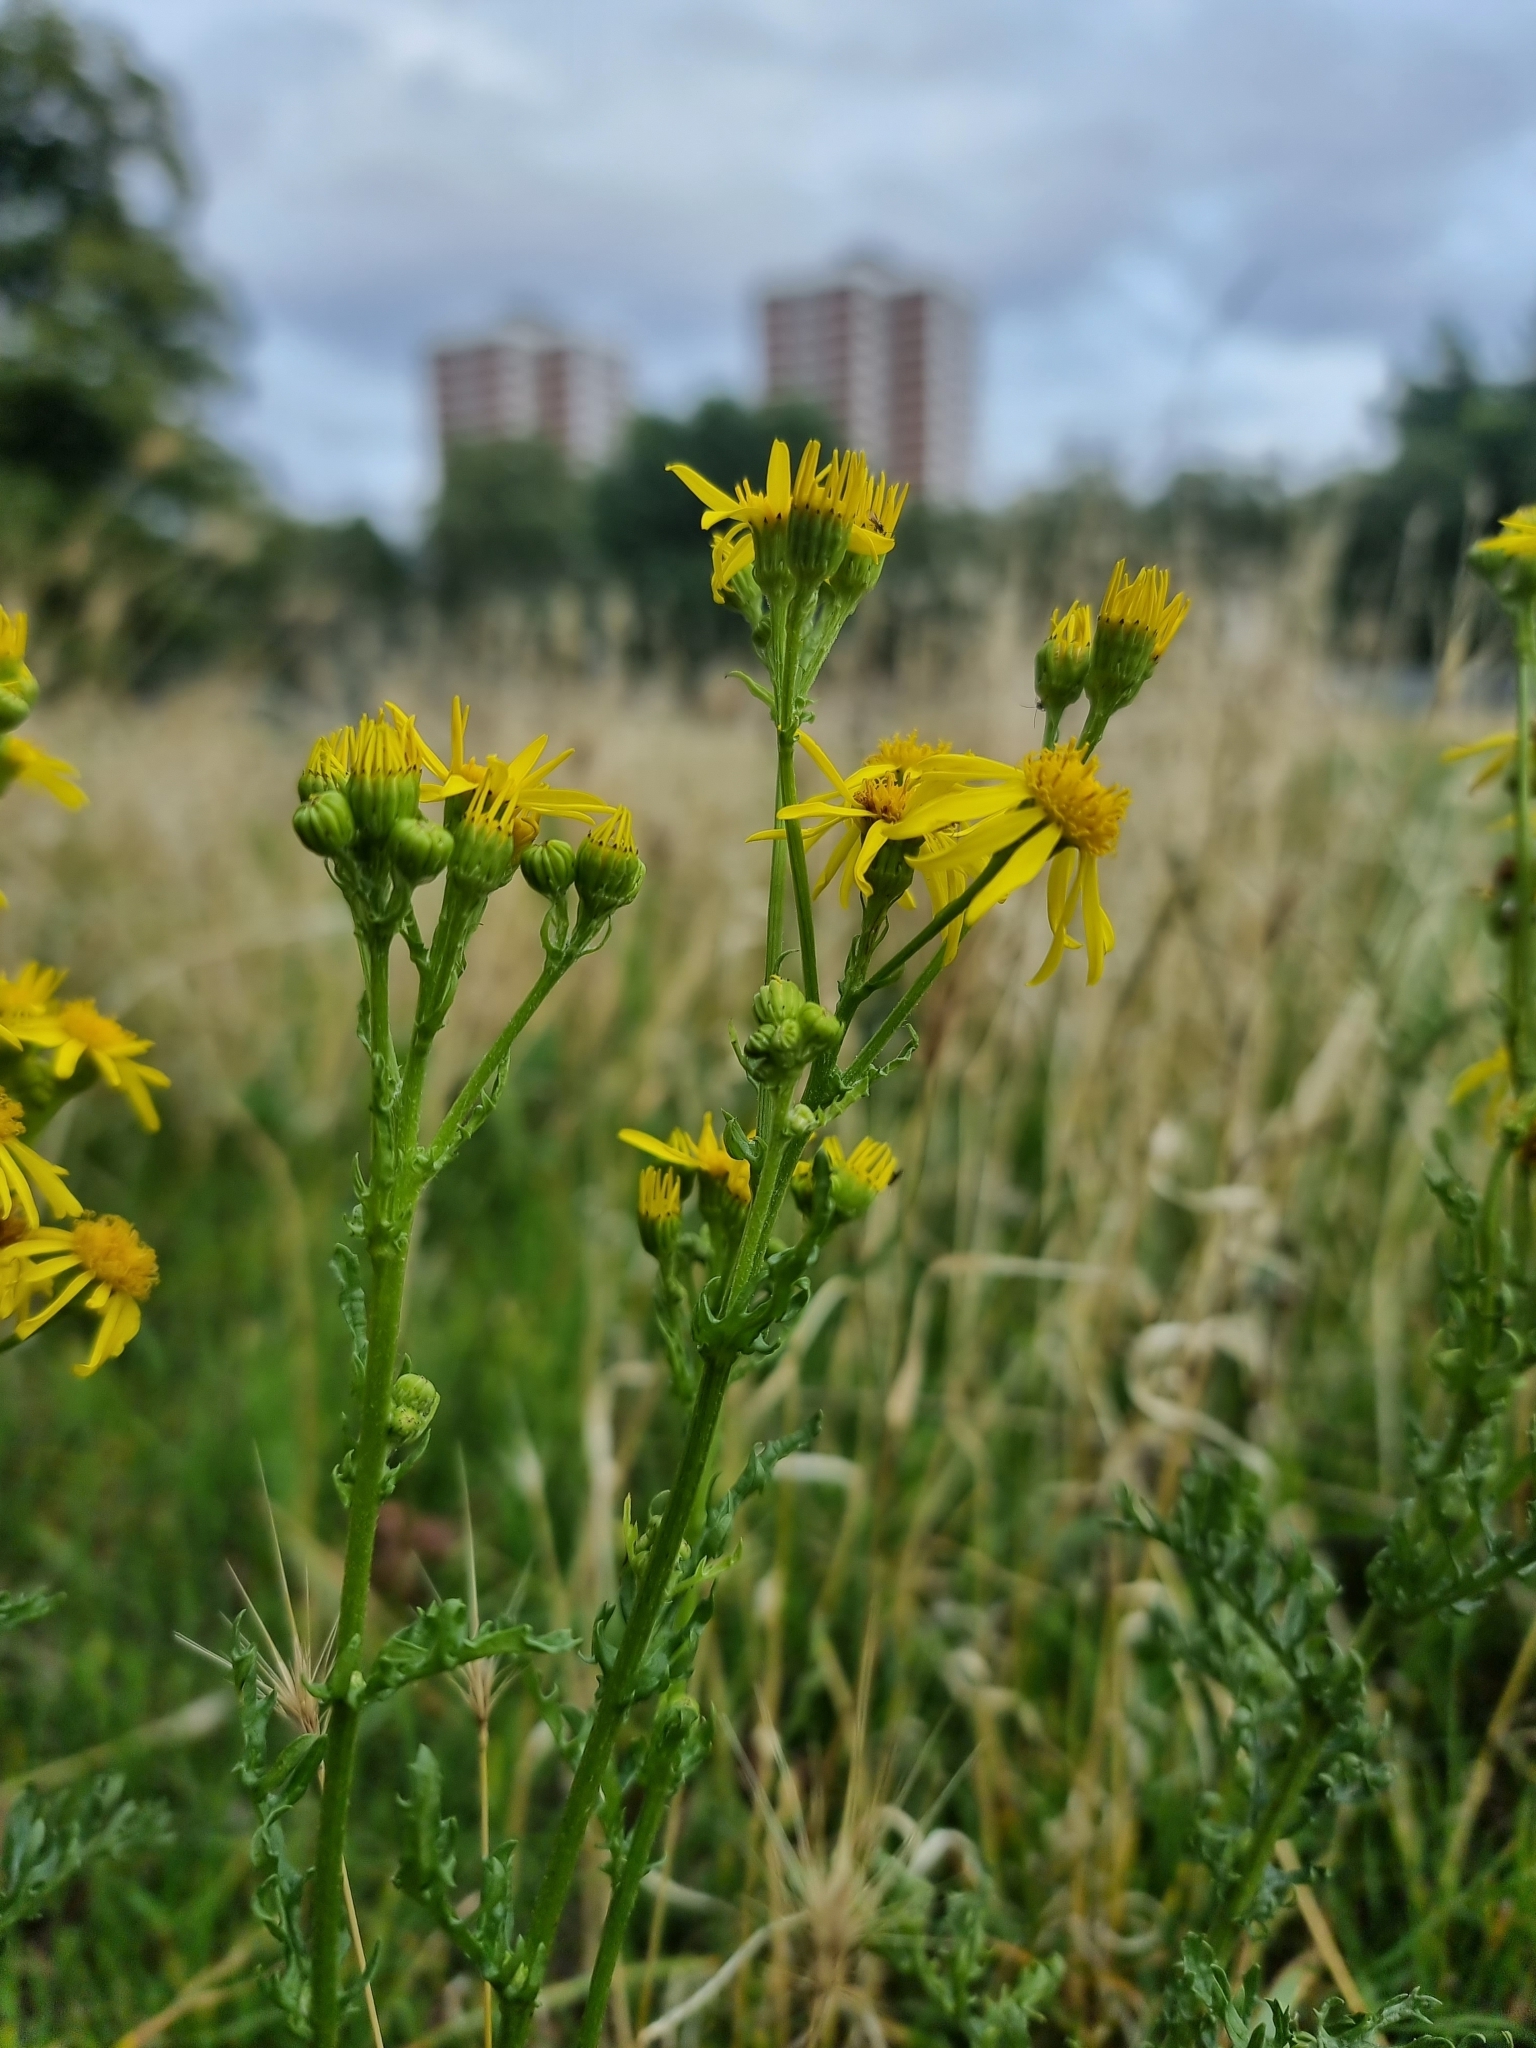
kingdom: Plantae
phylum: Tracheophyta
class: Magnoliopsida
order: Asterales
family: Asteraceae
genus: Jacobaea
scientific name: Jacobaea vulgaris
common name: Stinking willie
